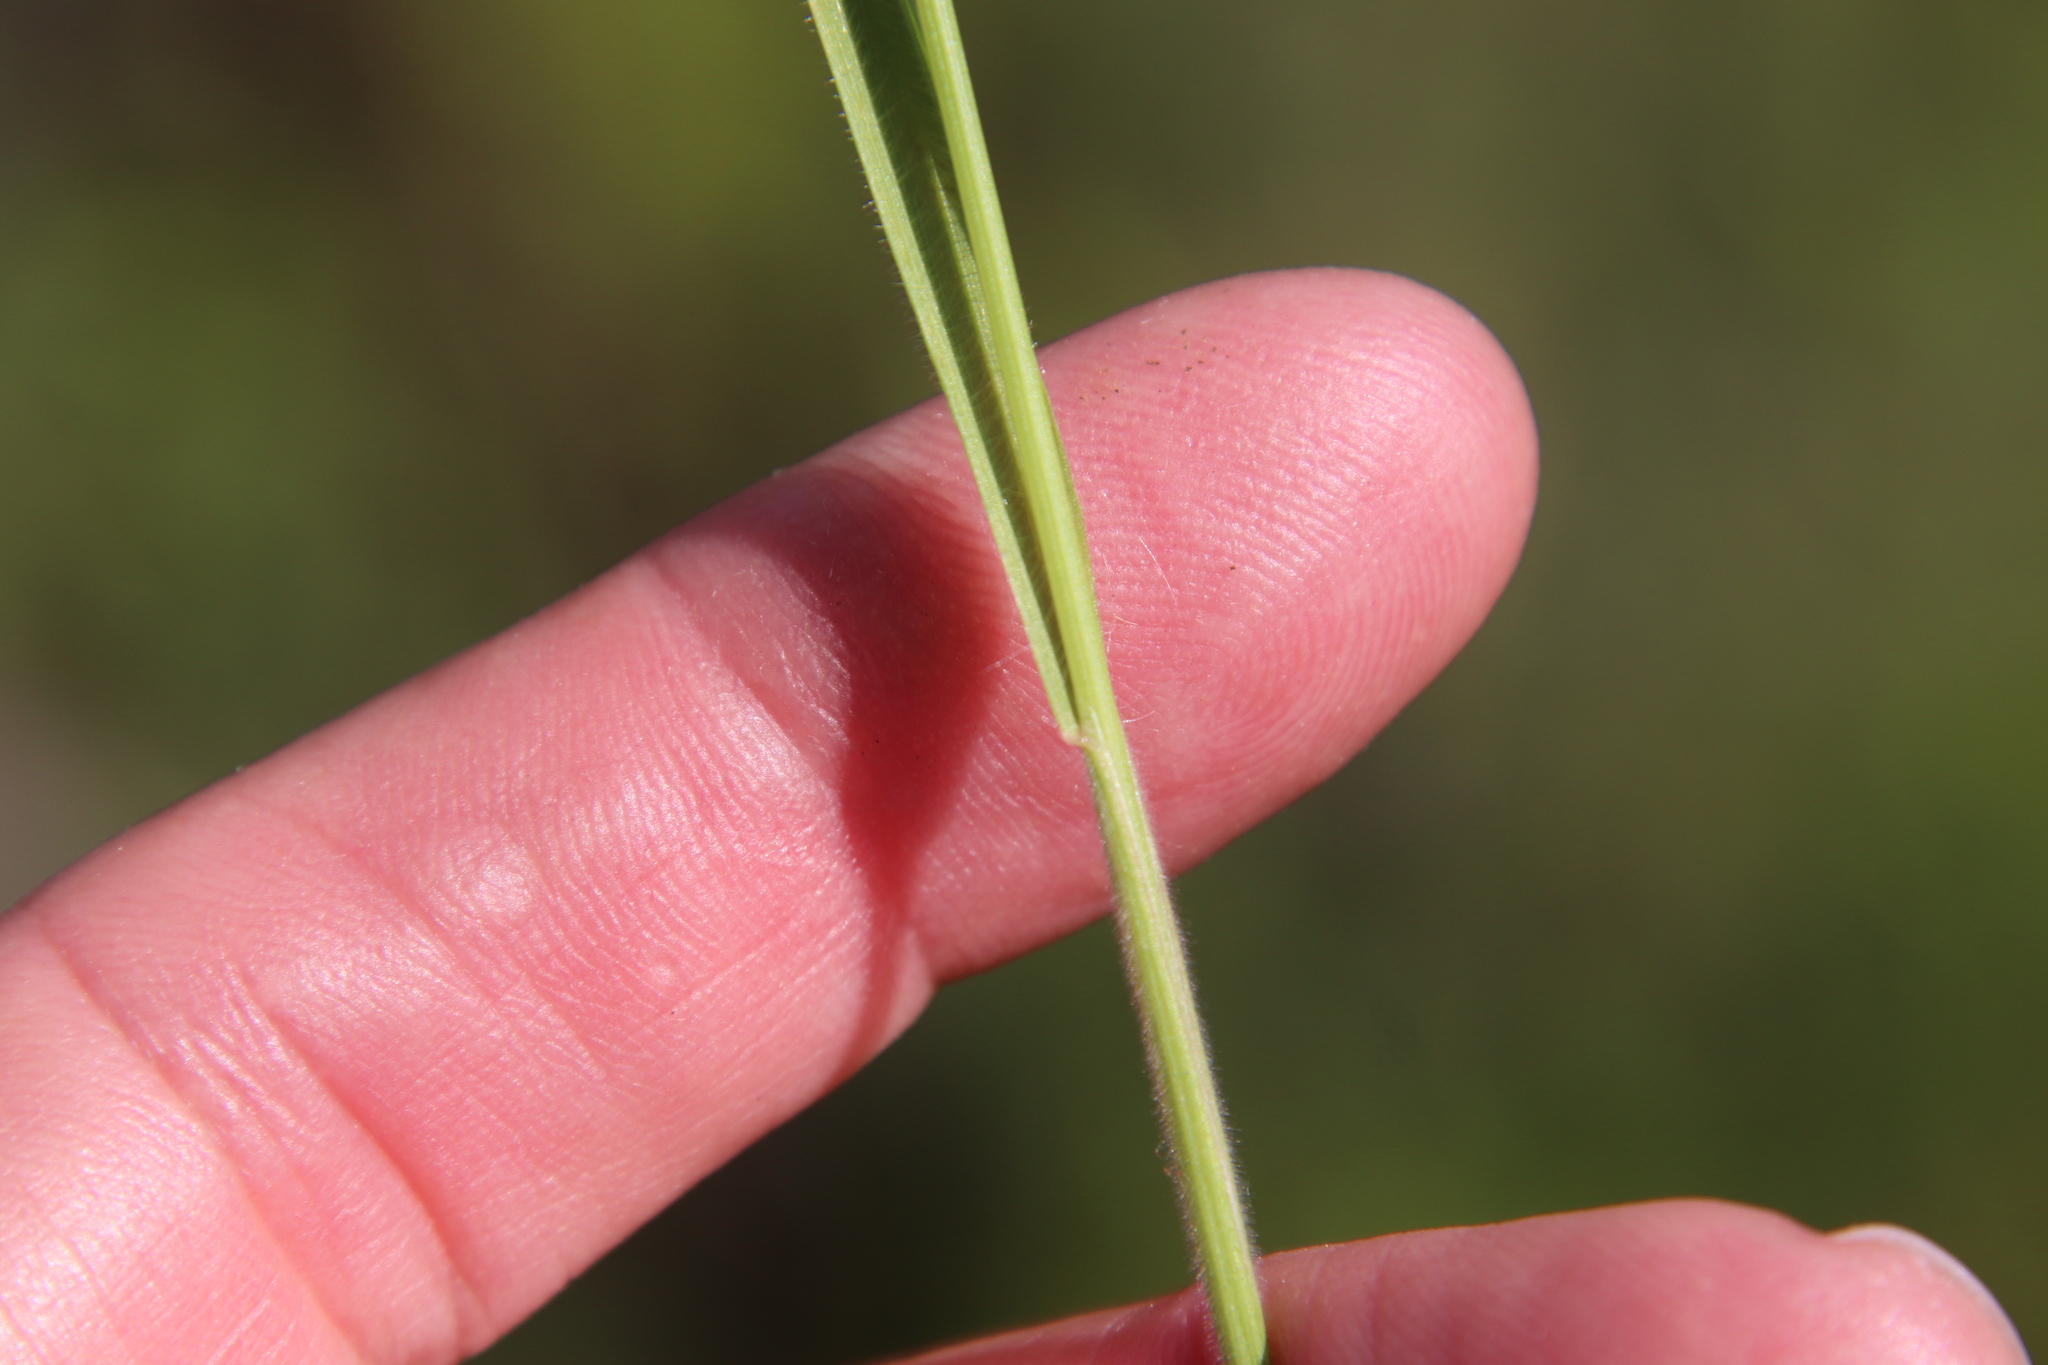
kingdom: Plantae
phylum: Tracheophyta
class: Liliopsida
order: Poales
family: Poaceae
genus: Bromus
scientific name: Bromus hordeaceus
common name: Soft brome
